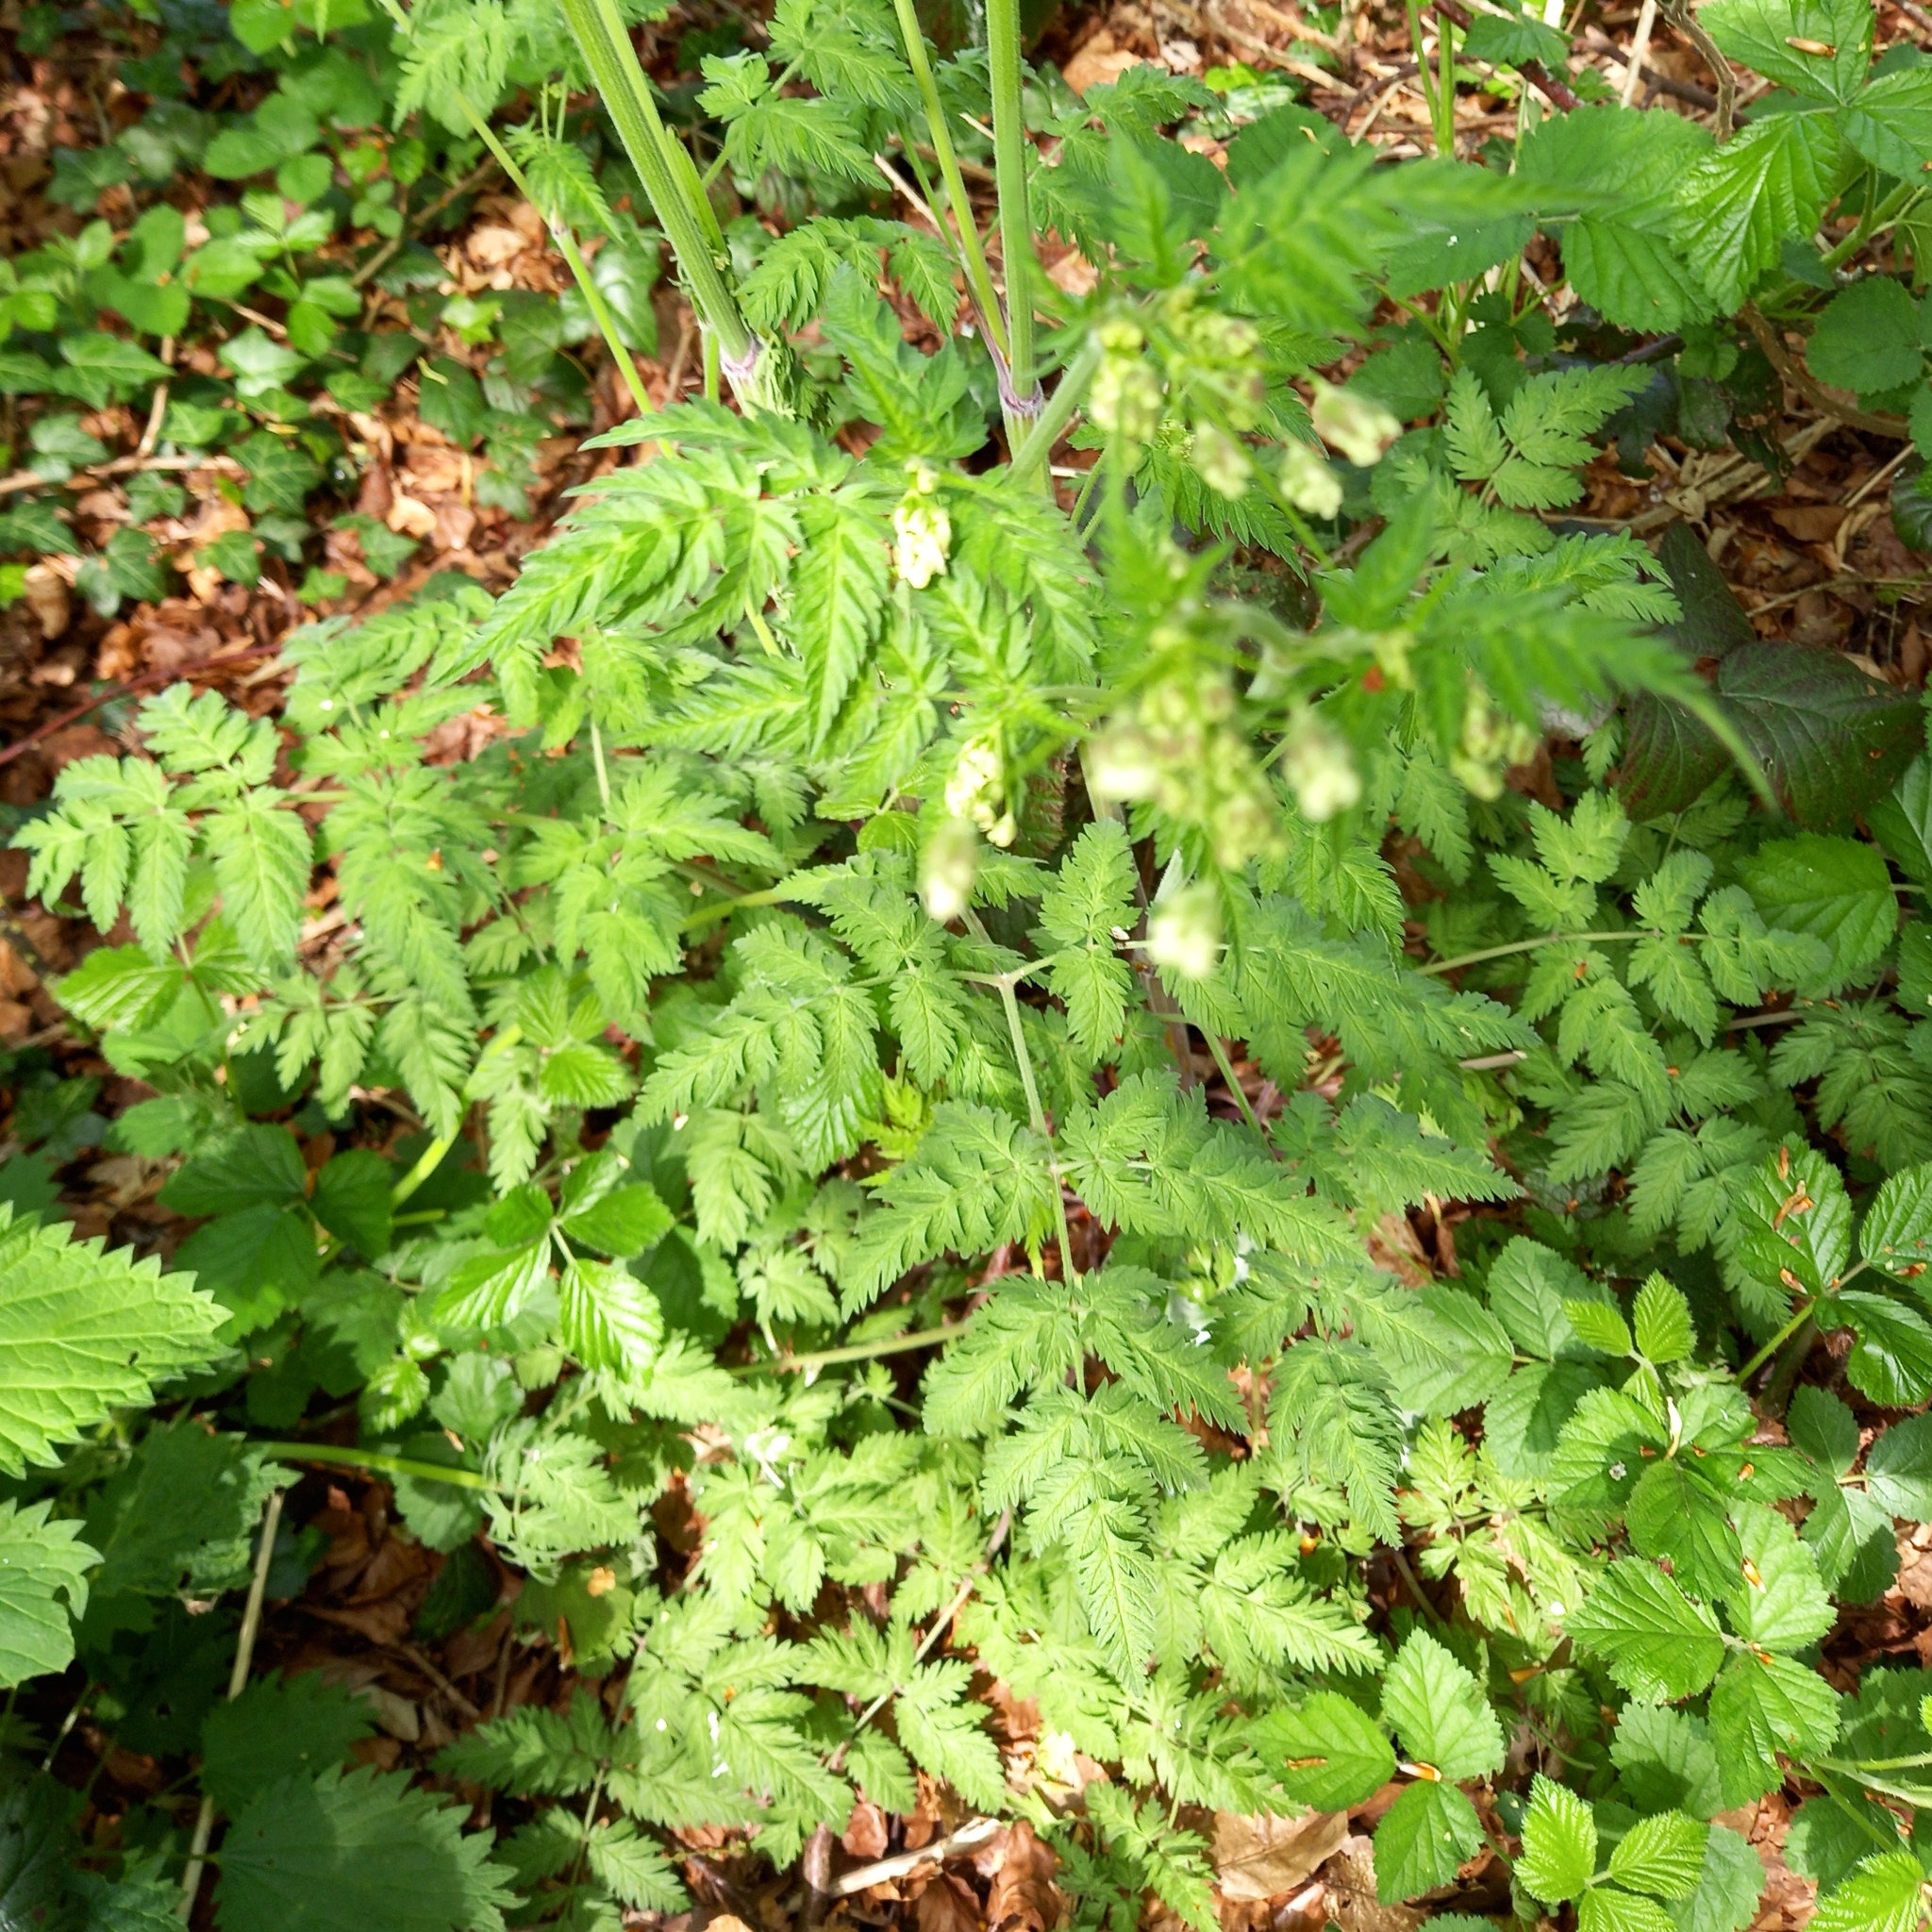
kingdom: Plantae
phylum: Tracheophyta
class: Magnoliopsida
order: Apiales
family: Apiaceae
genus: Anthriscus
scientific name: Anthriscus sylvestris
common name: Cow parsley
